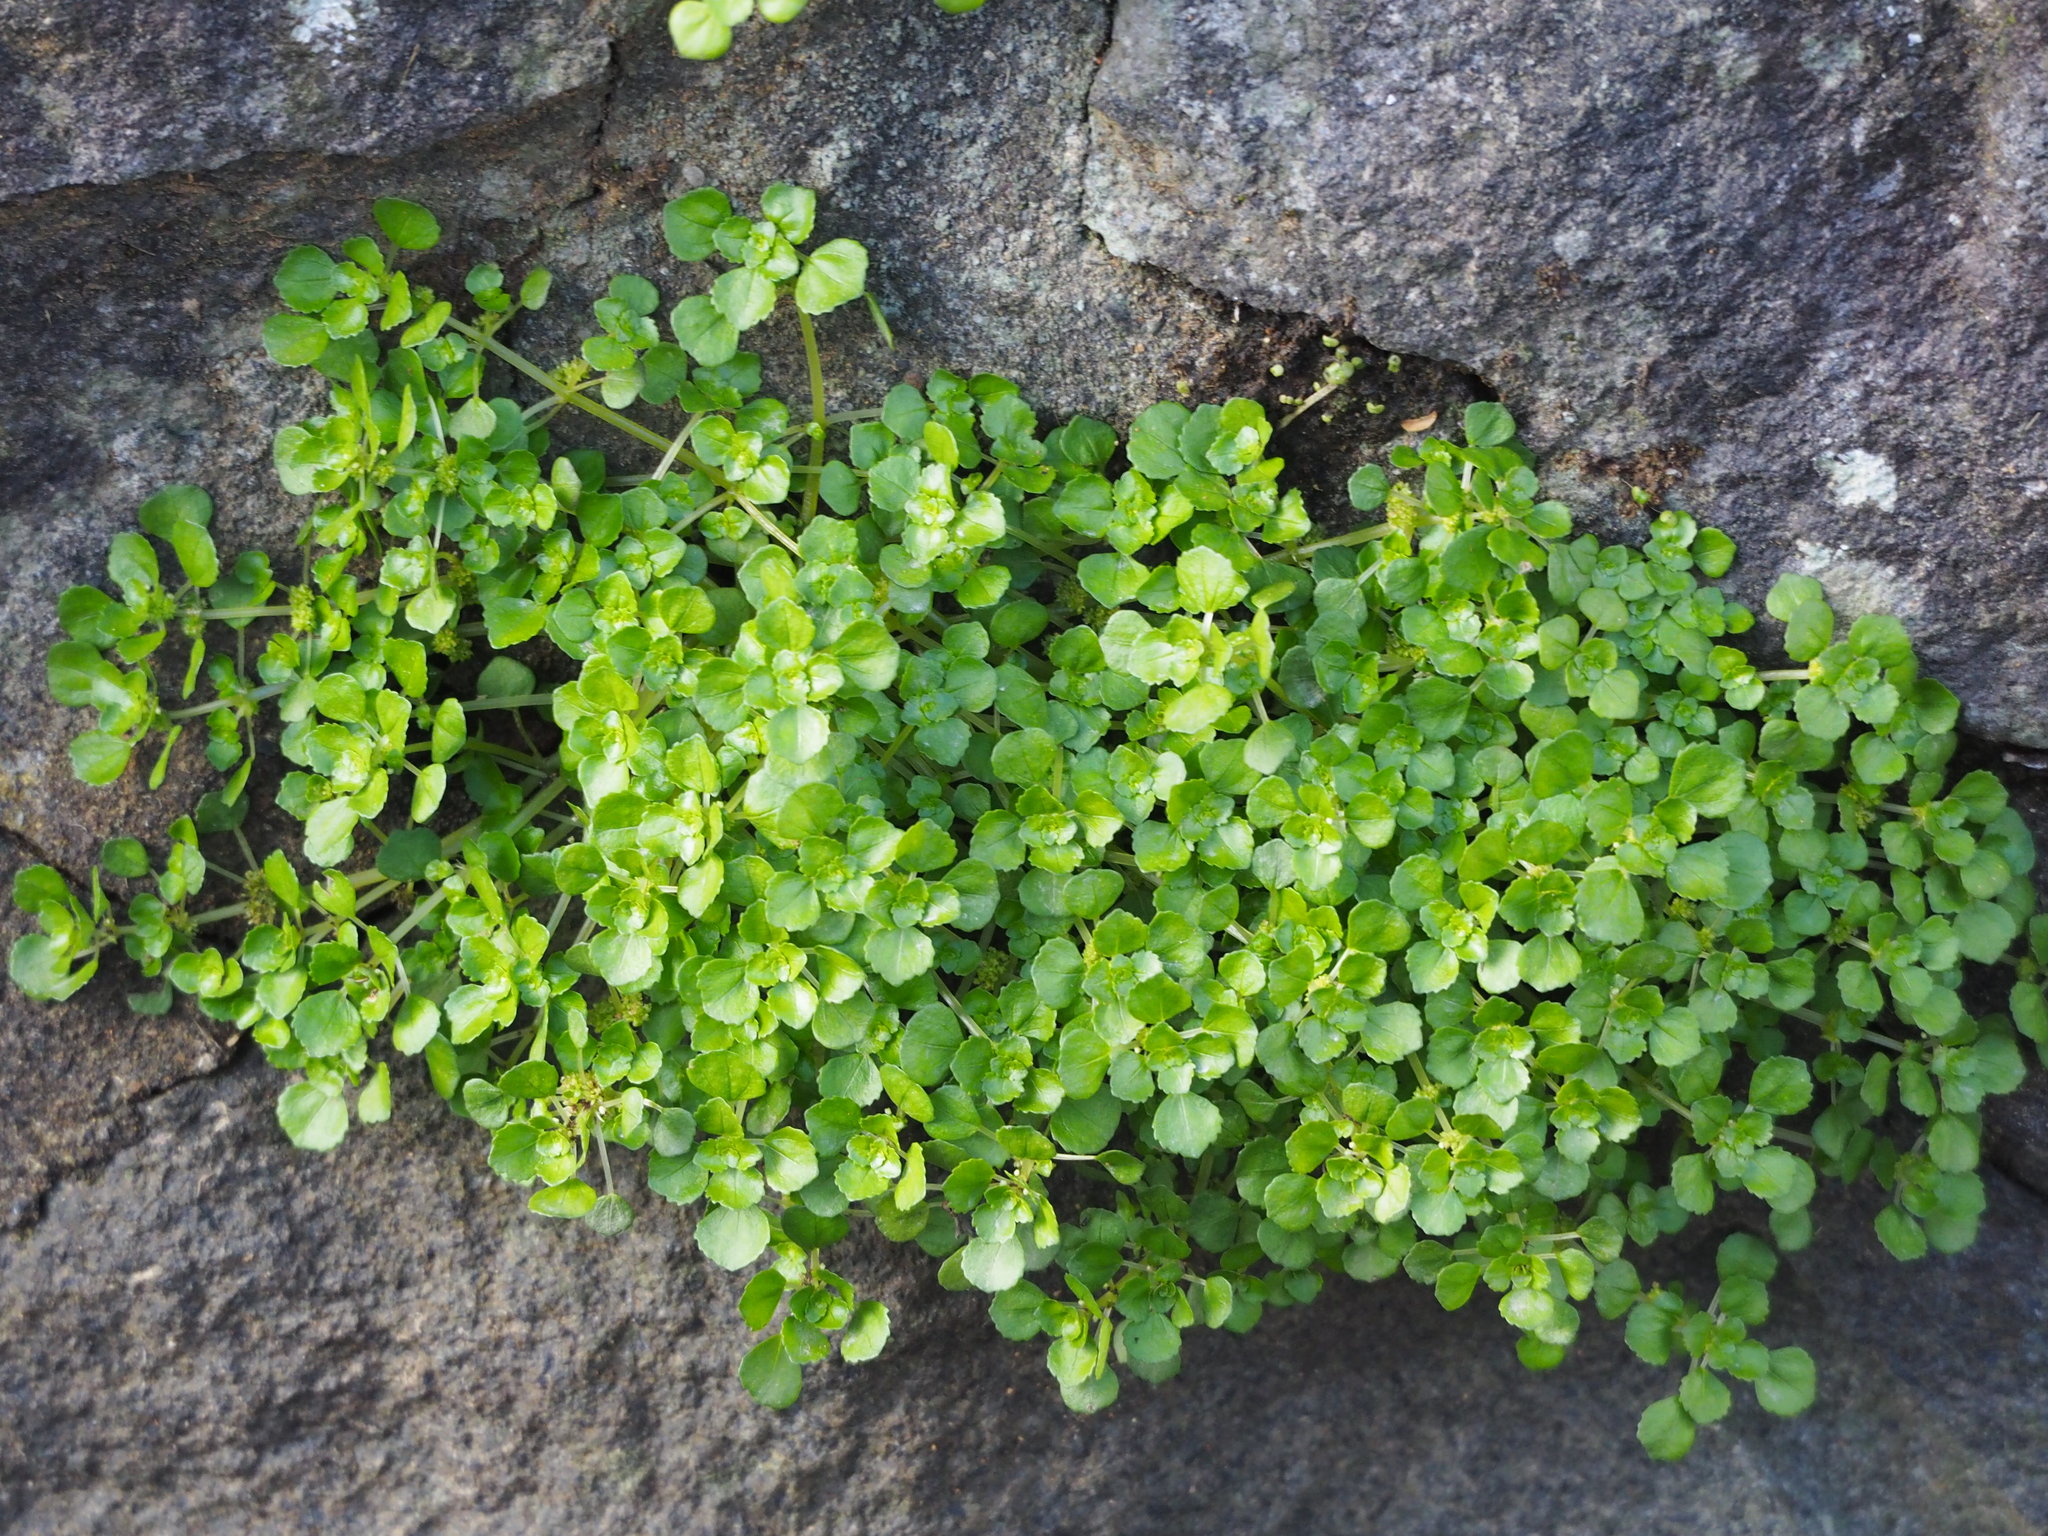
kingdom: Plantae
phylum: Tracheophyta
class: Magnoliopsida
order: Rosales
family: Urticaceae
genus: Pilea
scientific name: Pilea peploides
